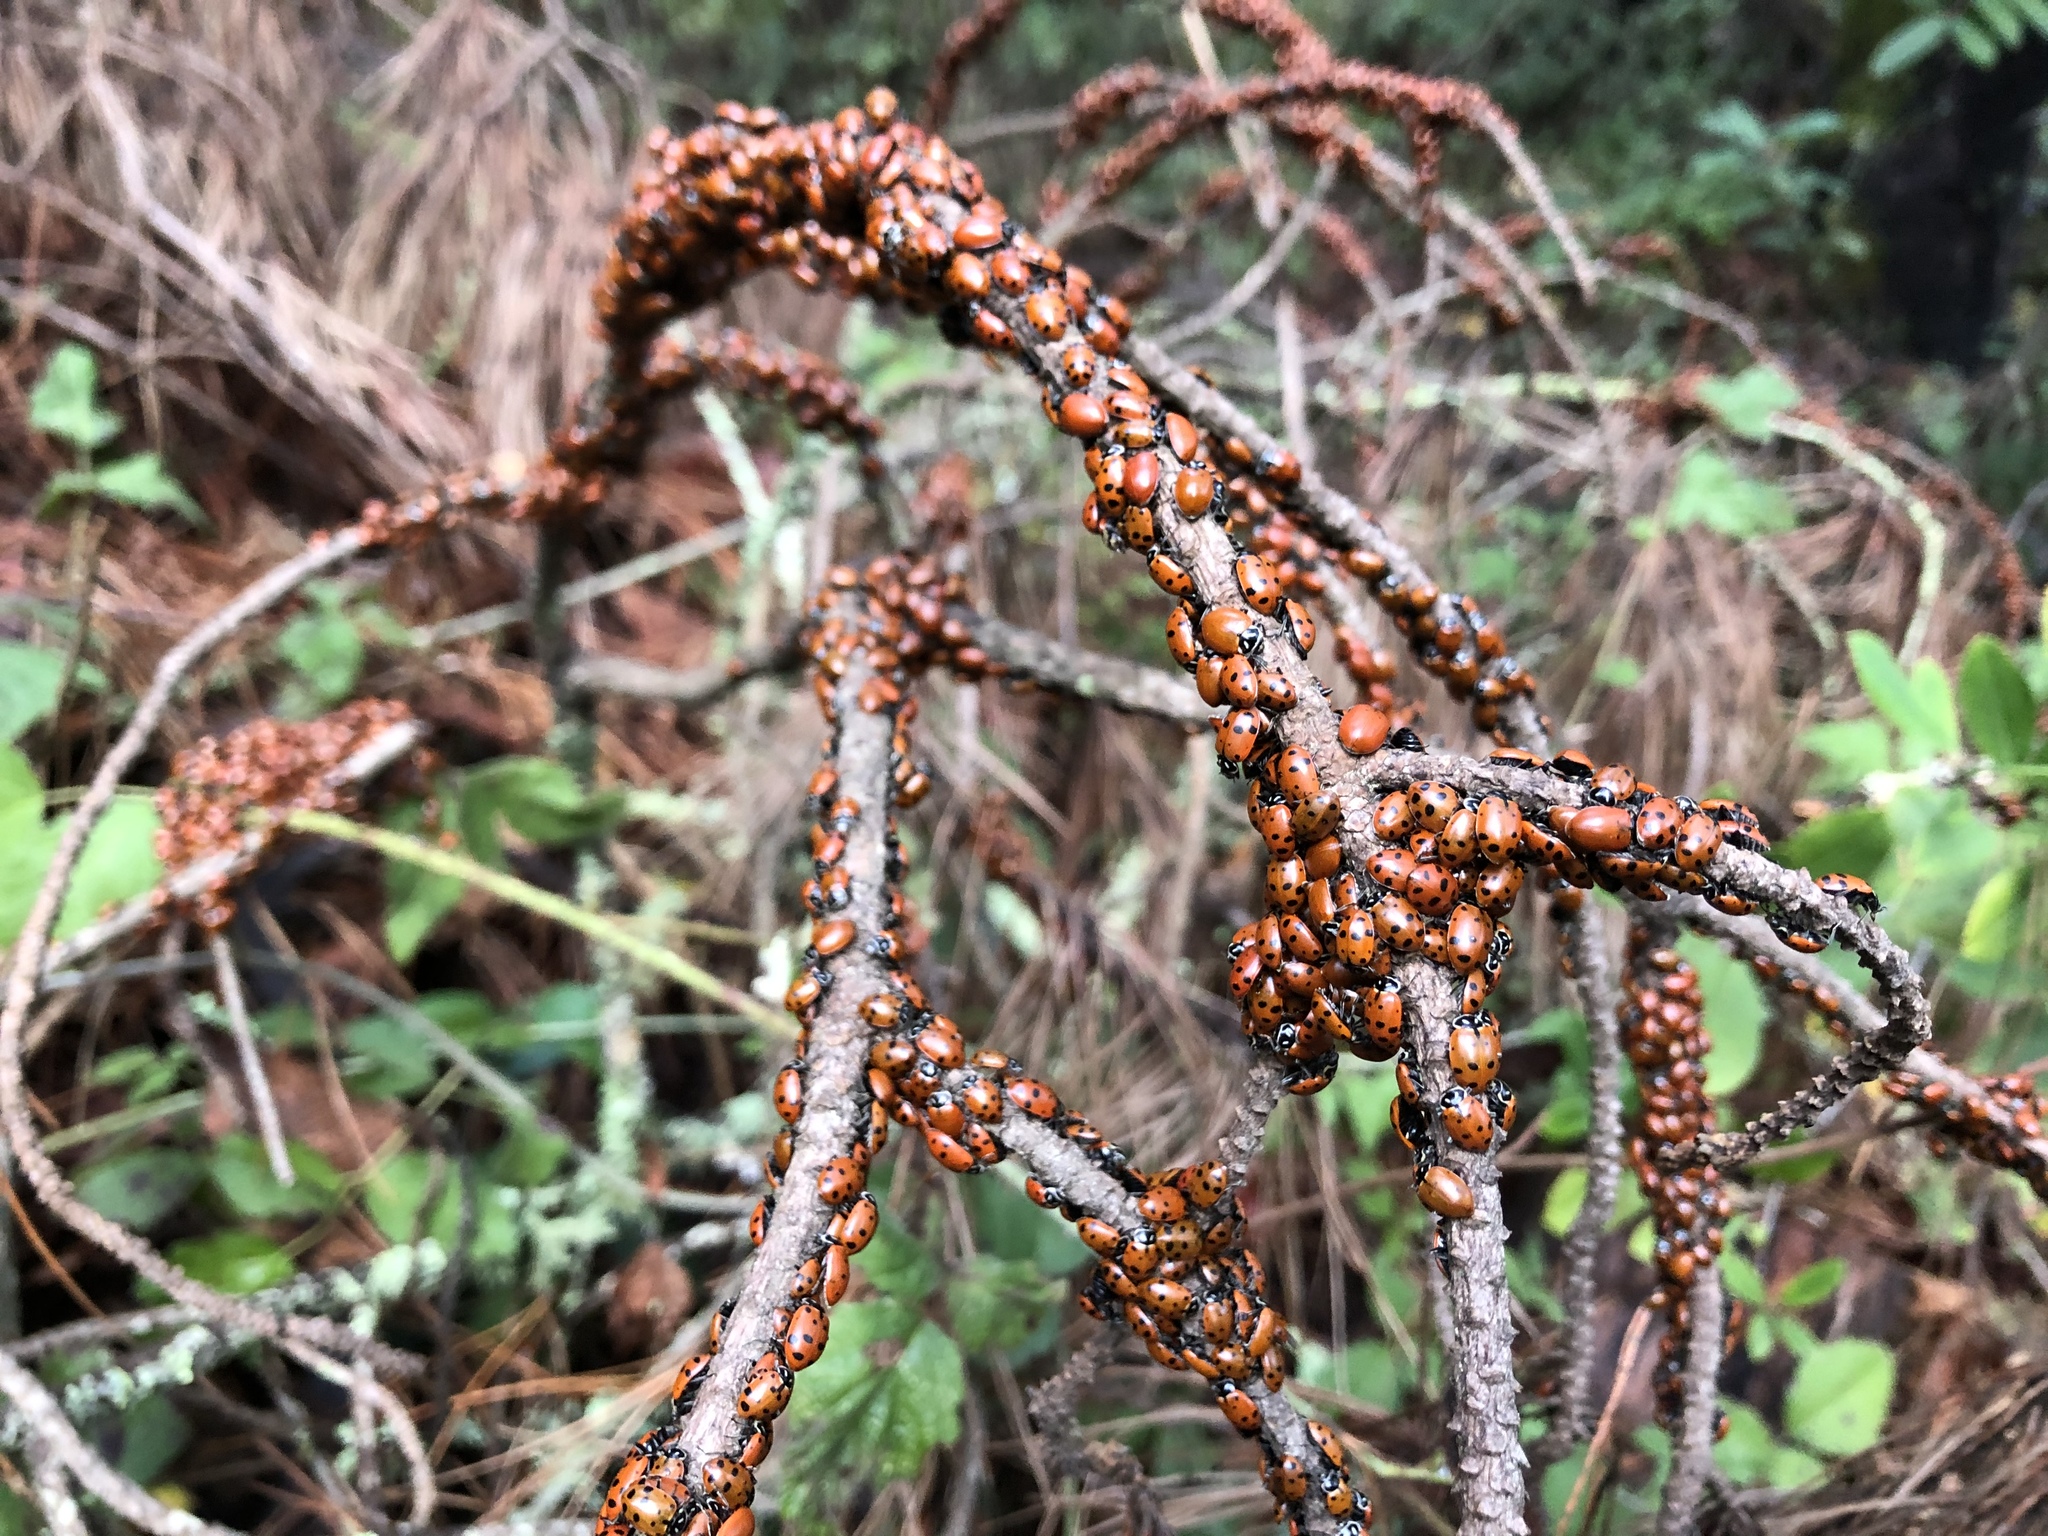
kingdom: Animalia
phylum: Arthropoda
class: Insecta
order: Coleoptera
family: Coccinellidae
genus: Hippodamia
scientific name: Hippodamia convergens
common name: Convergent lady beetle
